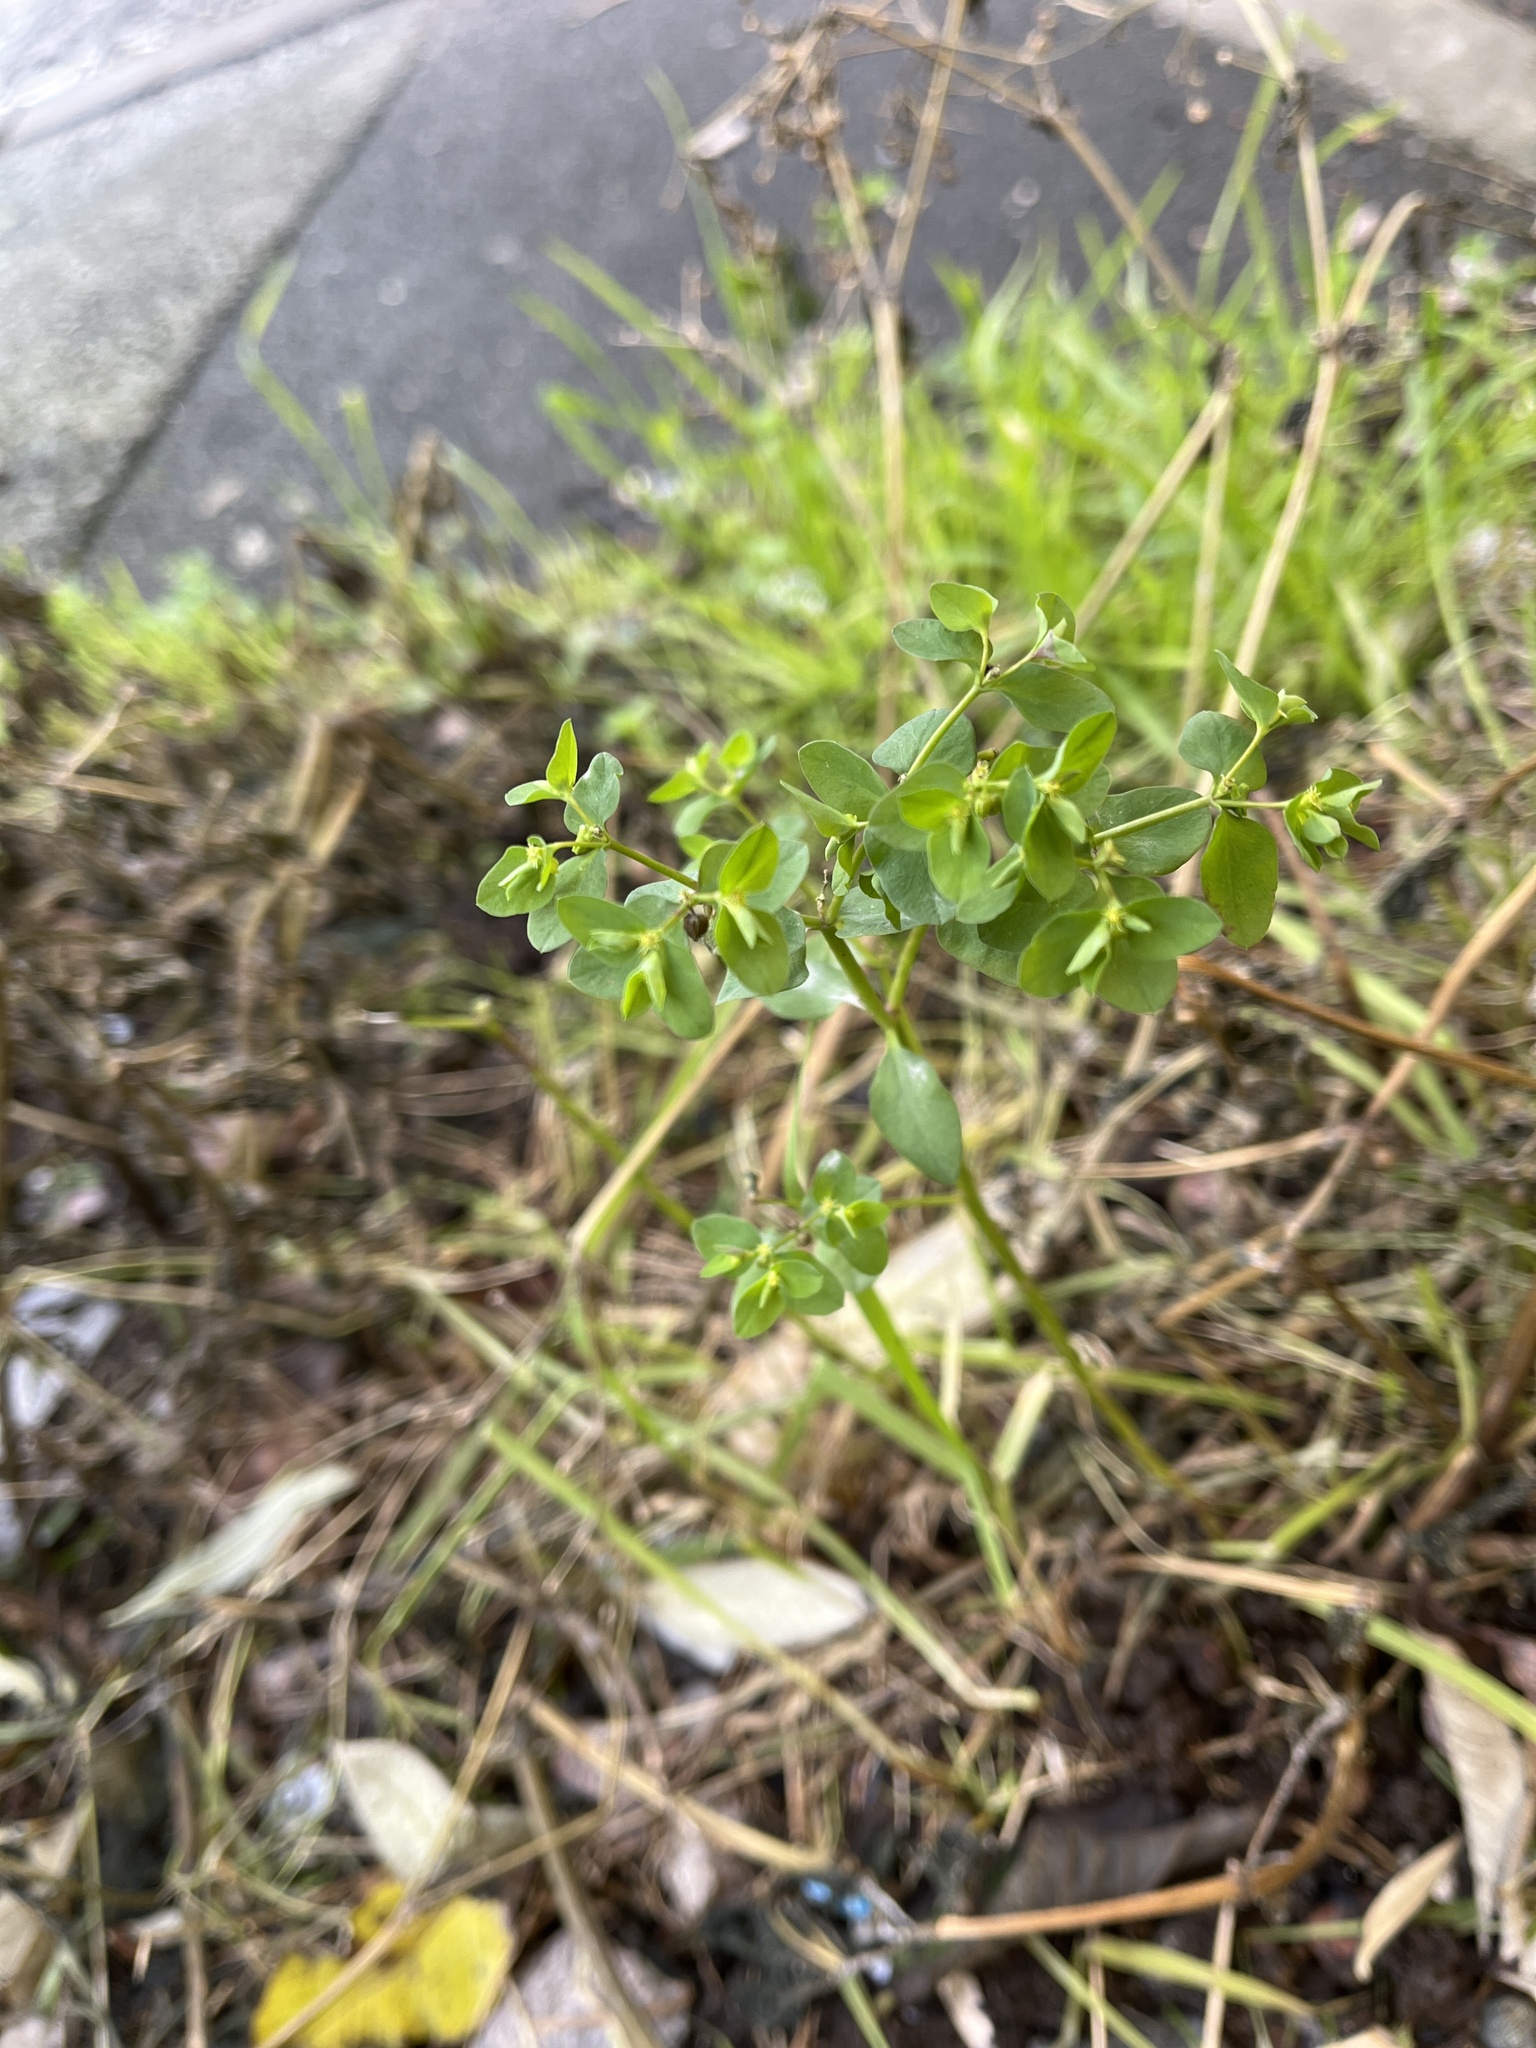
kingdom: Plantae
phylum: Tracheophyta
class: Magnoliopsida
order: Malpighiales
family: Euphorbiaceae
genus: Euphorbia
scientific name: Euphorbia peplus
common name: Petty spurge
